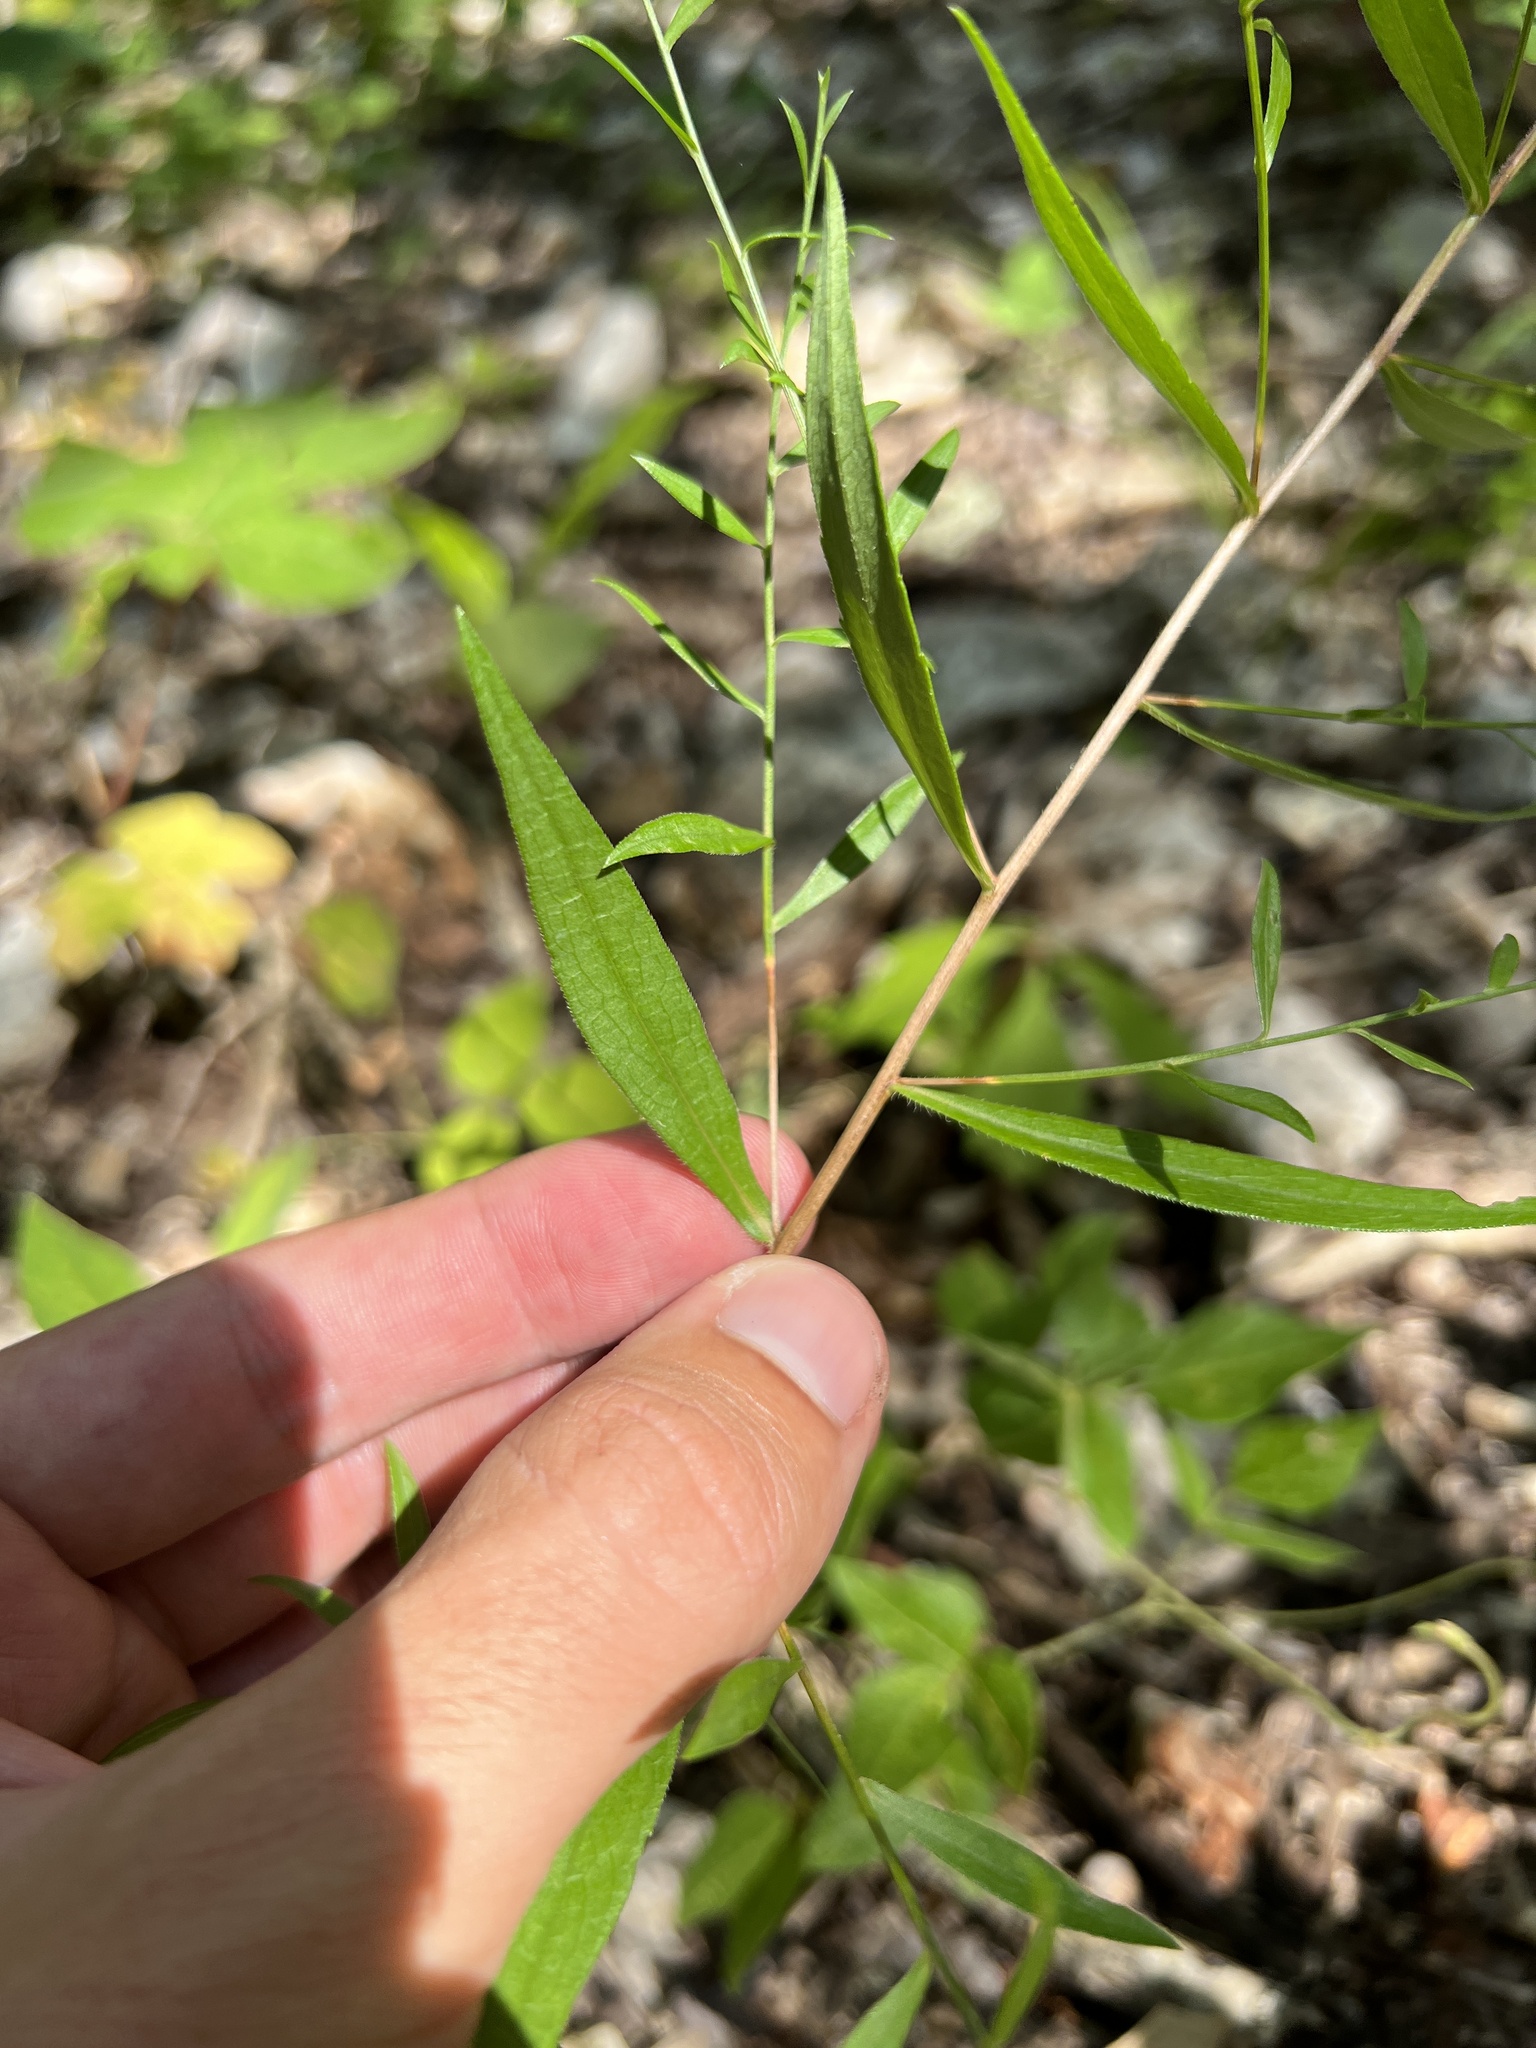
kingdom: Plantae
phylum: Tracheophyta
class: Magnoliopsida
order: Asterales
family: Asteraceae
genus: Symphyotrichum
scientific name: Symphyotrichum turbinellum
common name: Prairie aster
